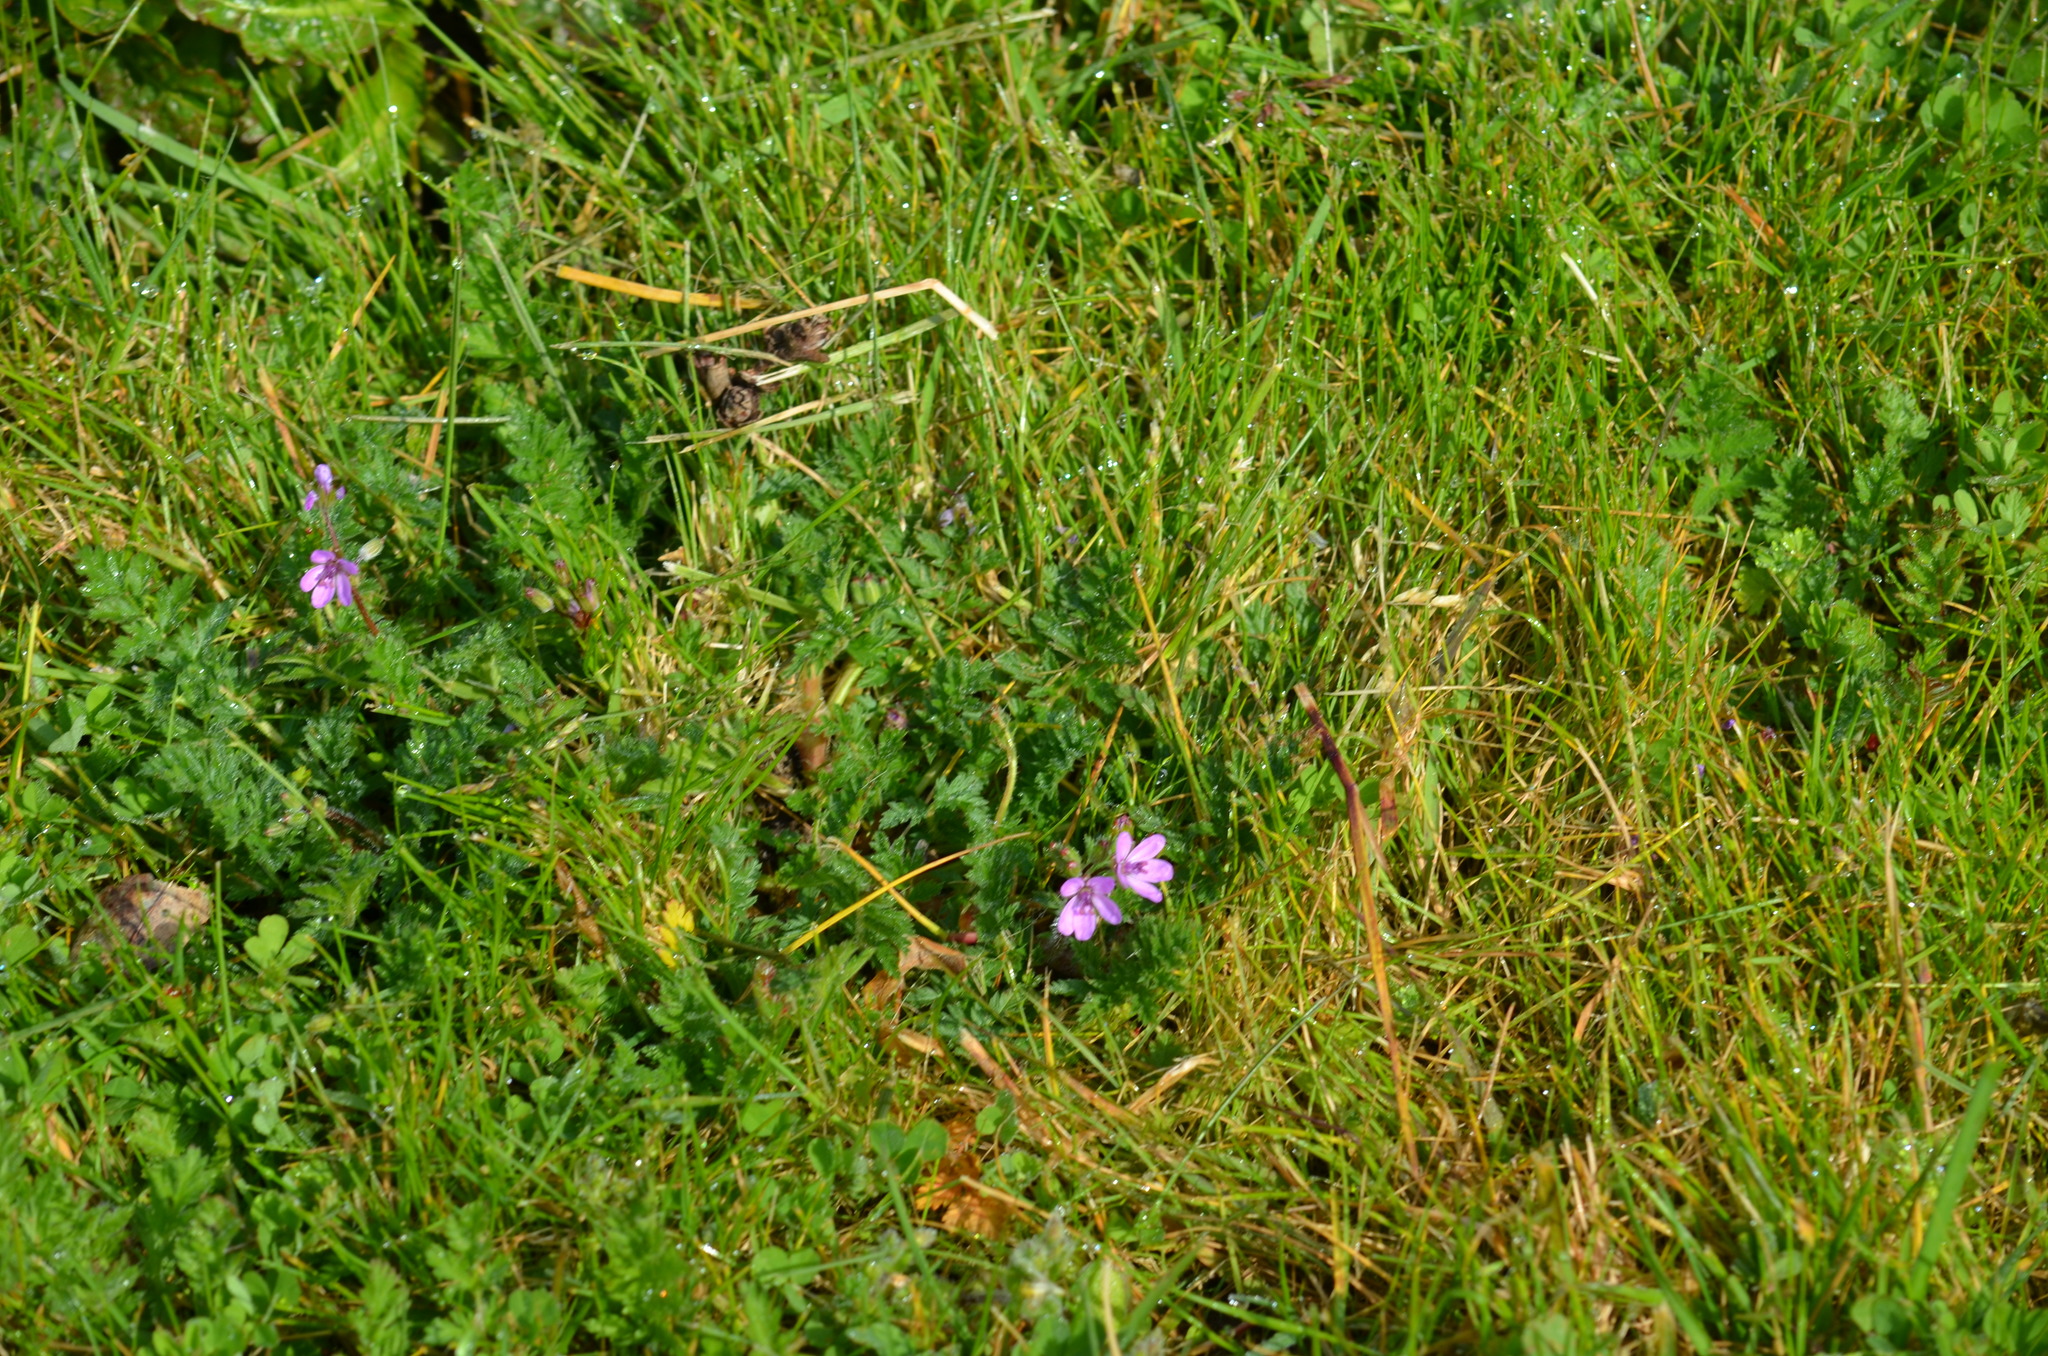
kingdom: Plantae
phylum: Tracheophyta
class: Magnoliopsida
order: Geraniales
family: Geraniaceae
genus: Erodium
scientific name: Erodium cicutarium
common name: Common stork's-bill
